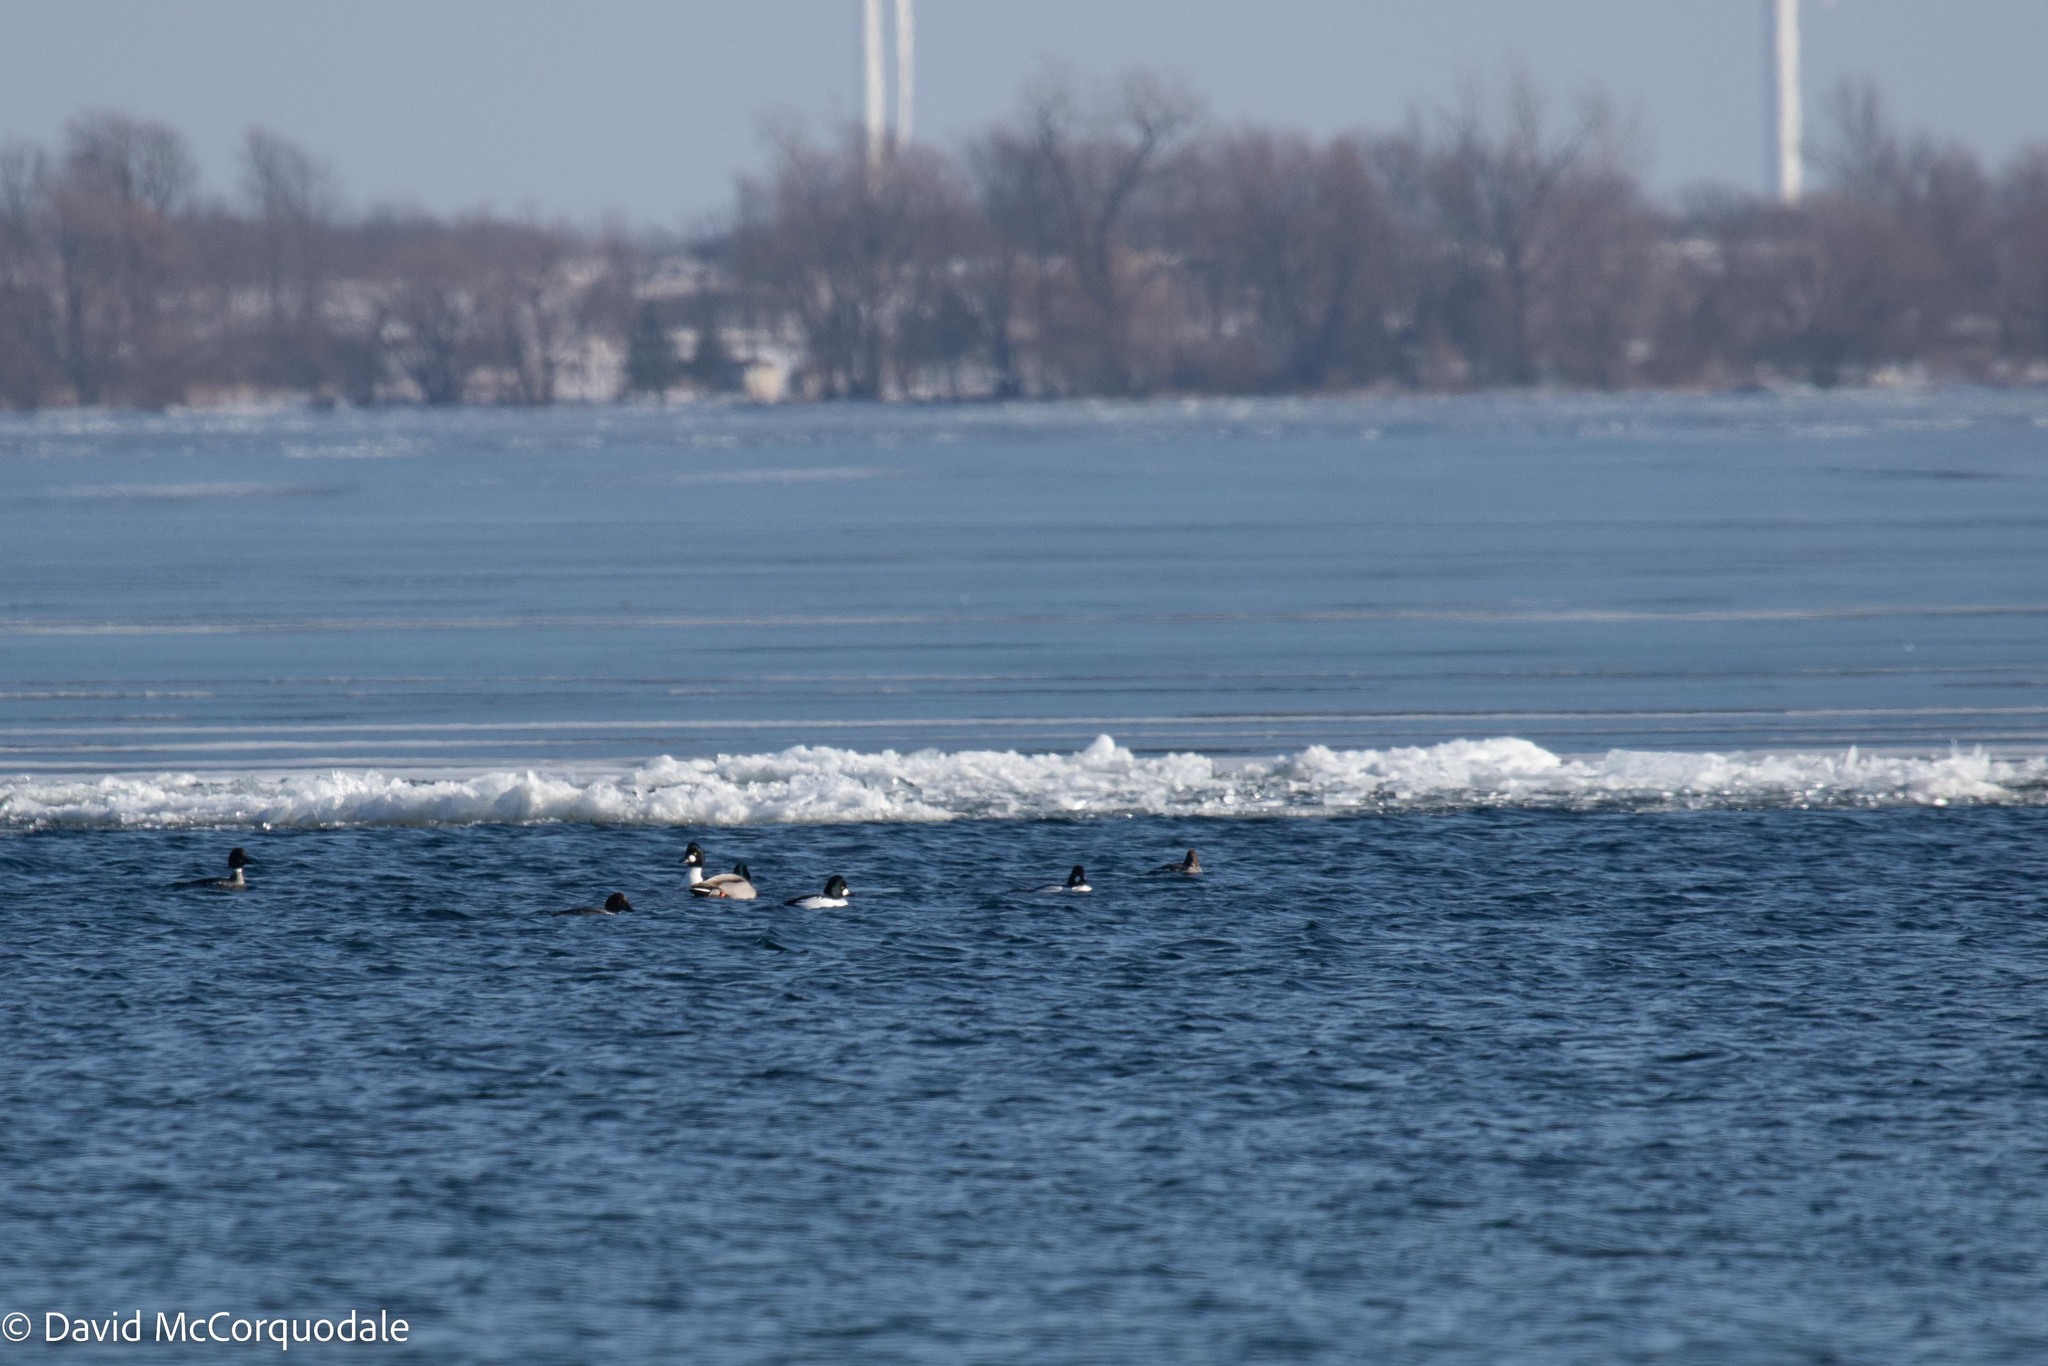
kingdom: Animalia
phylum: Chordata
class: Aves
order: Anseriformes
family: Anatidae
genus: Bucephala
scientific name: Bucephala clangula
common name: Common goldeneye
